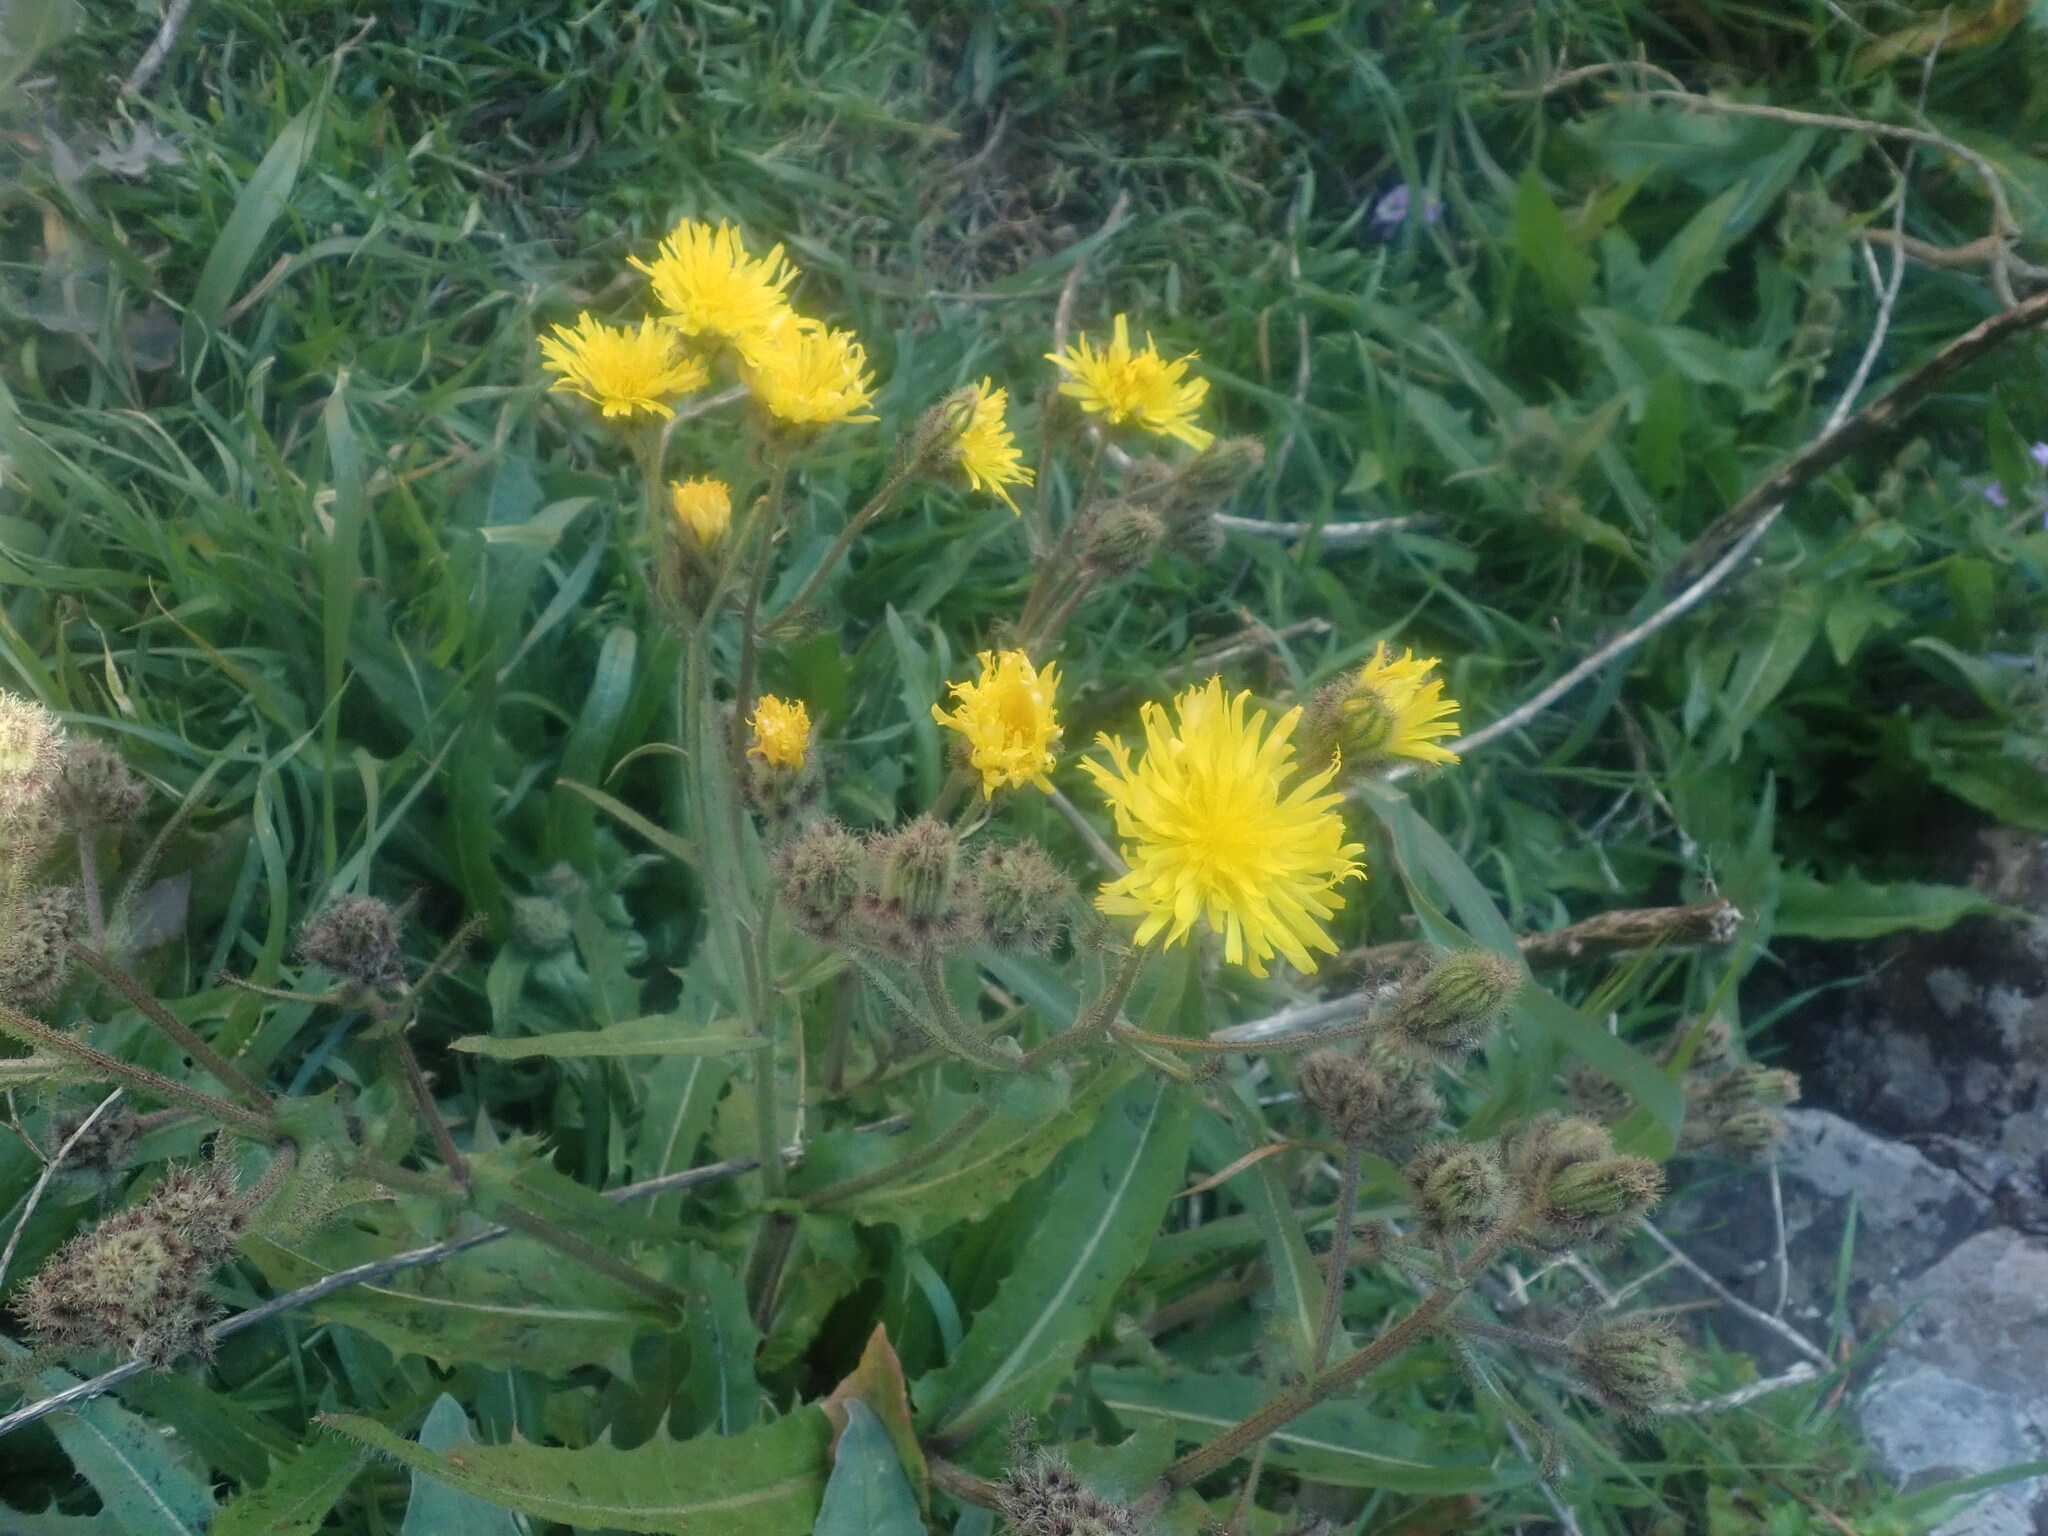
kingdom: Plantae
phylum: Tracheophyta
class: Magnoliopsida
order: Asterales
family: Asteraceae
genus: Crepis
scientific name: Crepis vesicaria
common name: Beaked hawksbeard
